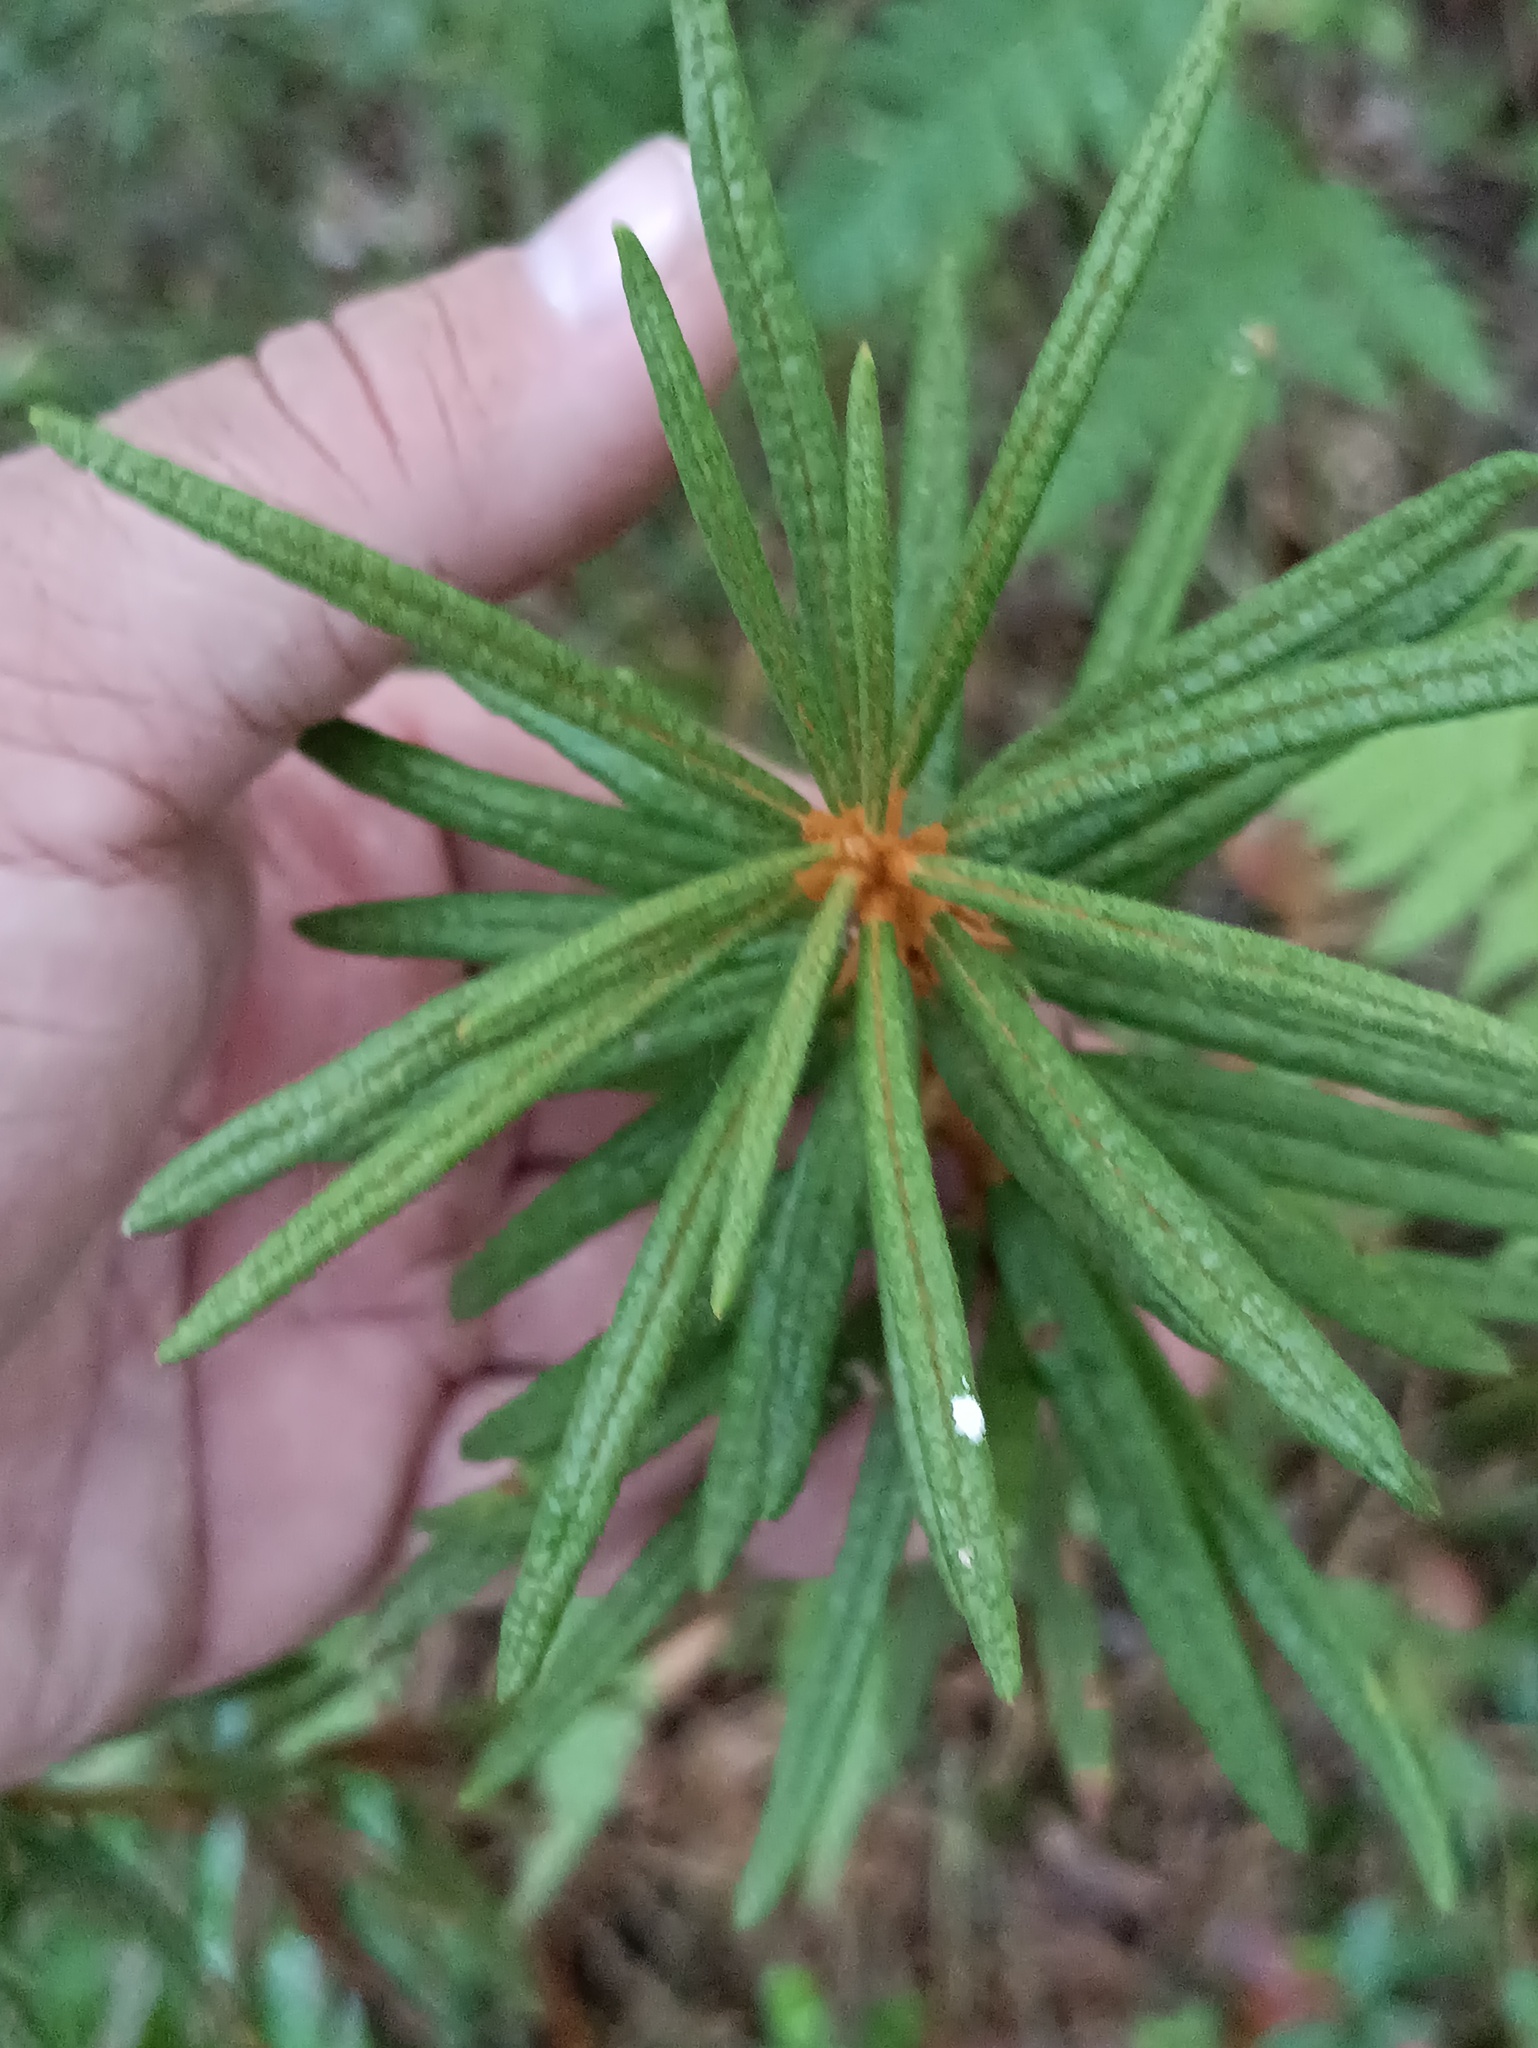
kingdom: Plantae
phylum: Tracheophyta
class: Magnoliopsida
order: Ericales
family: Ericaceae
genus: Rhododendron
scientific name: Rhododendron tomentosum
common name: Marsh labrador tea
